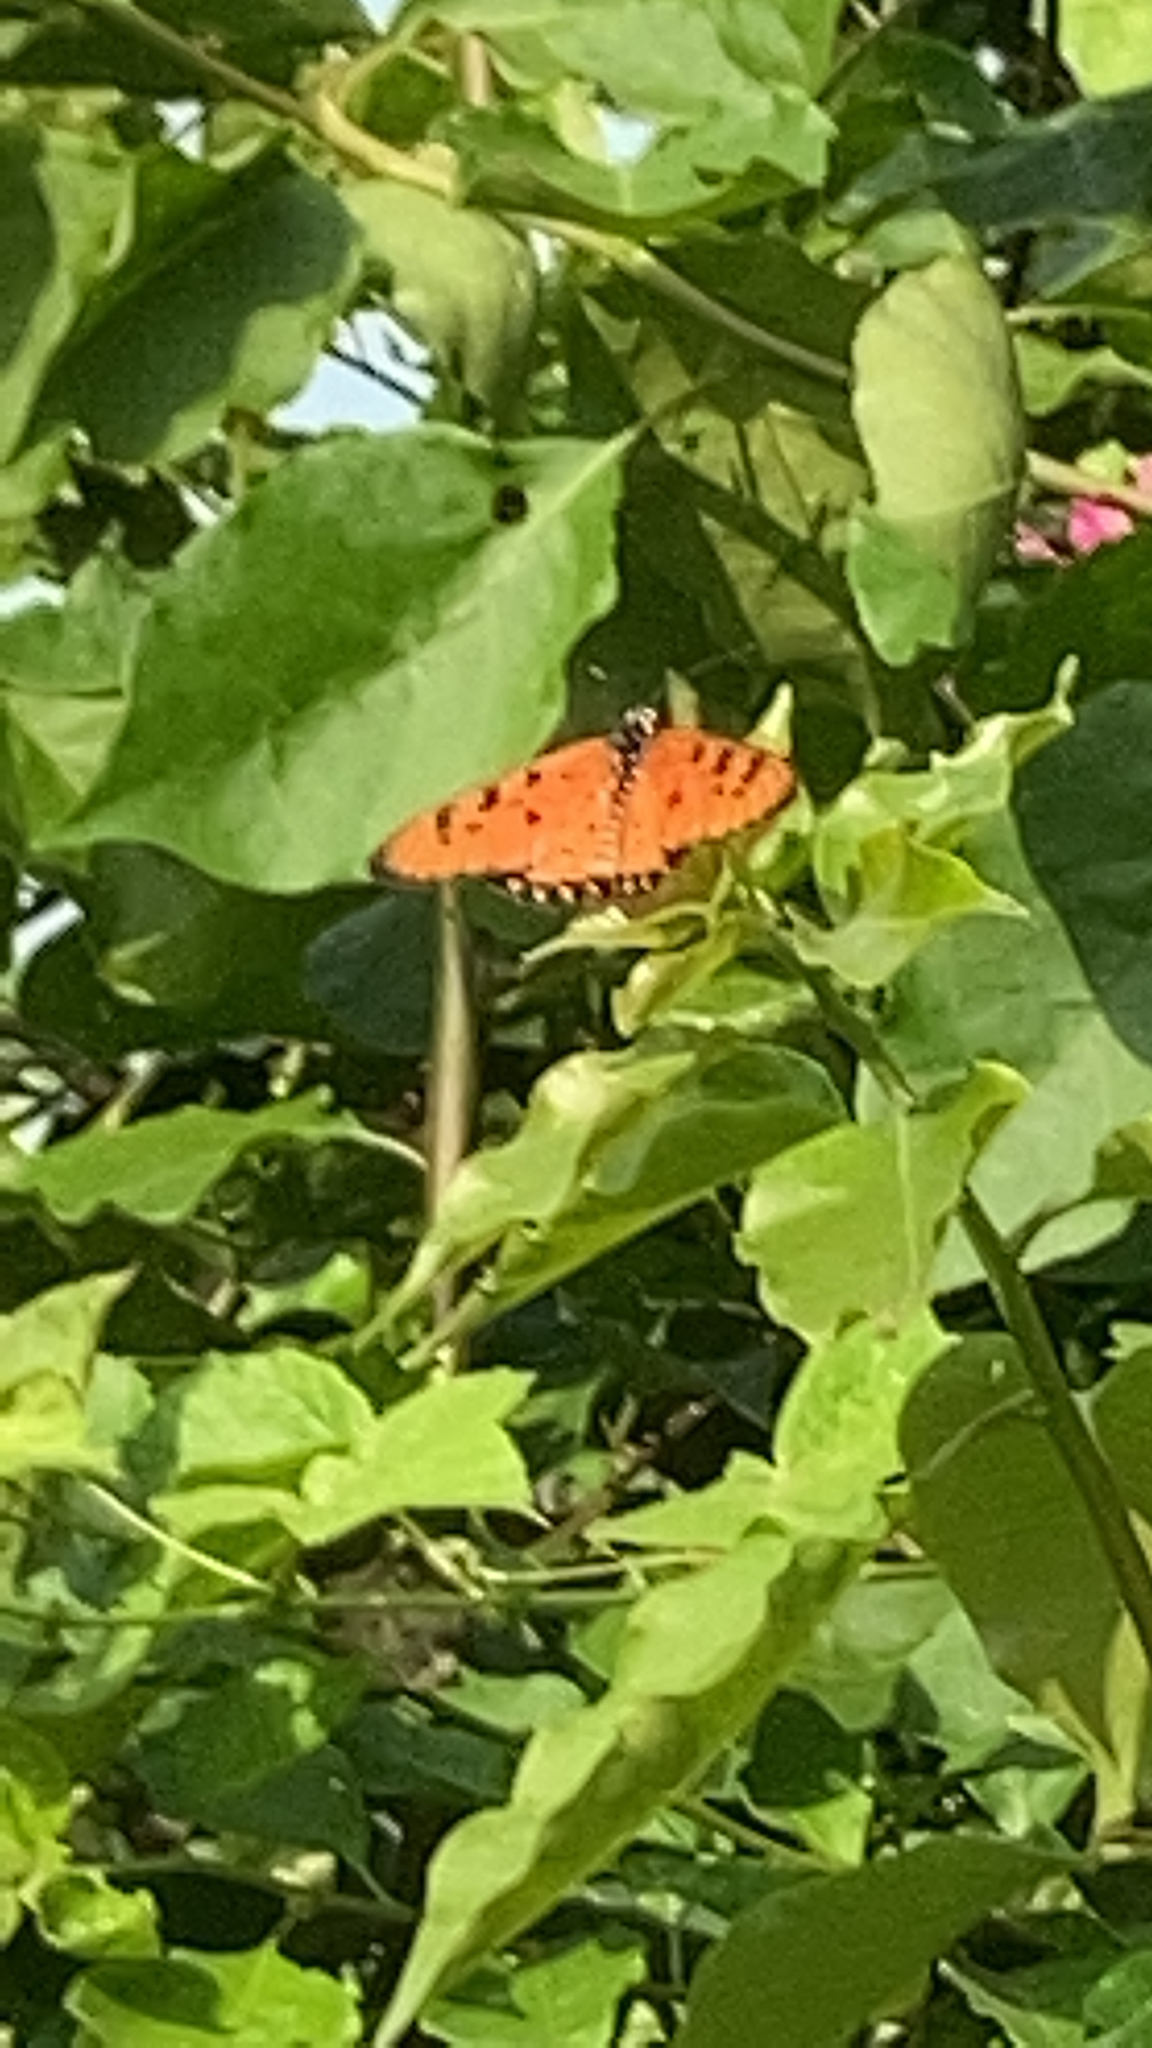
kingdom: Animalia
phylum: Arthropoda
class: Insecta
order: Lepidoptera
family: Nymphalidae
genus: Acraea
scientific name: Acraea terpsicore
